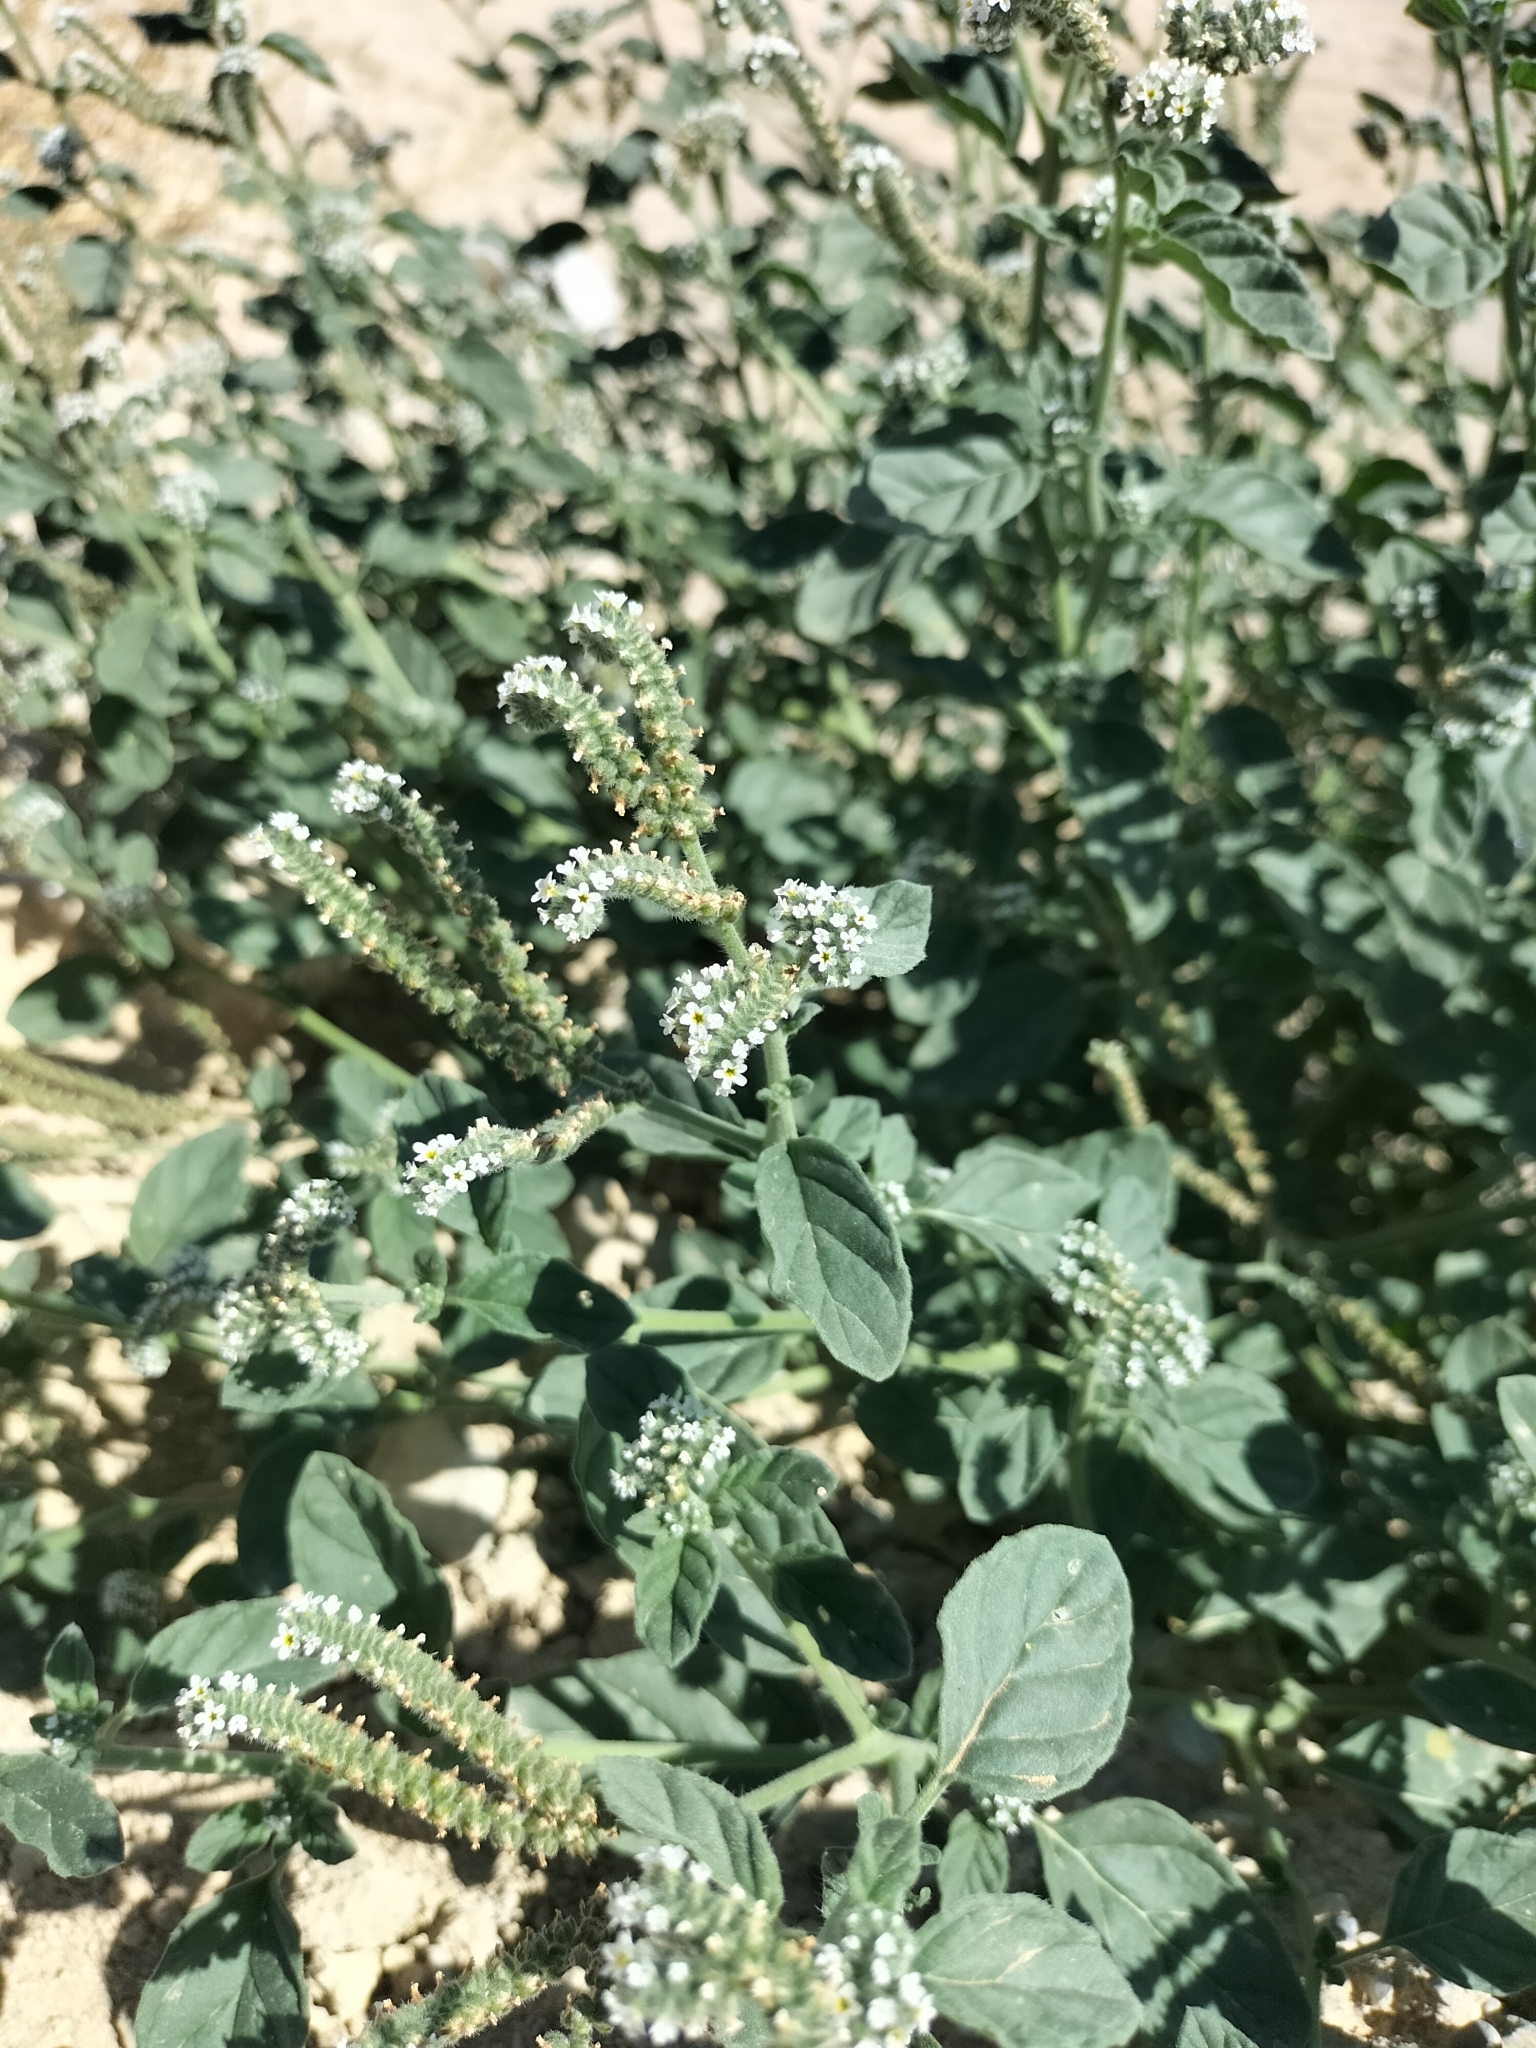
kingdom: Plantae
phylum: Tracheophyta
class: Magnoliopsida
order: Boraginales
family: Heliotropiaceae
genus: Heliotropium
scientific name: Heliotropium europaeum
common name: European heliotrope
